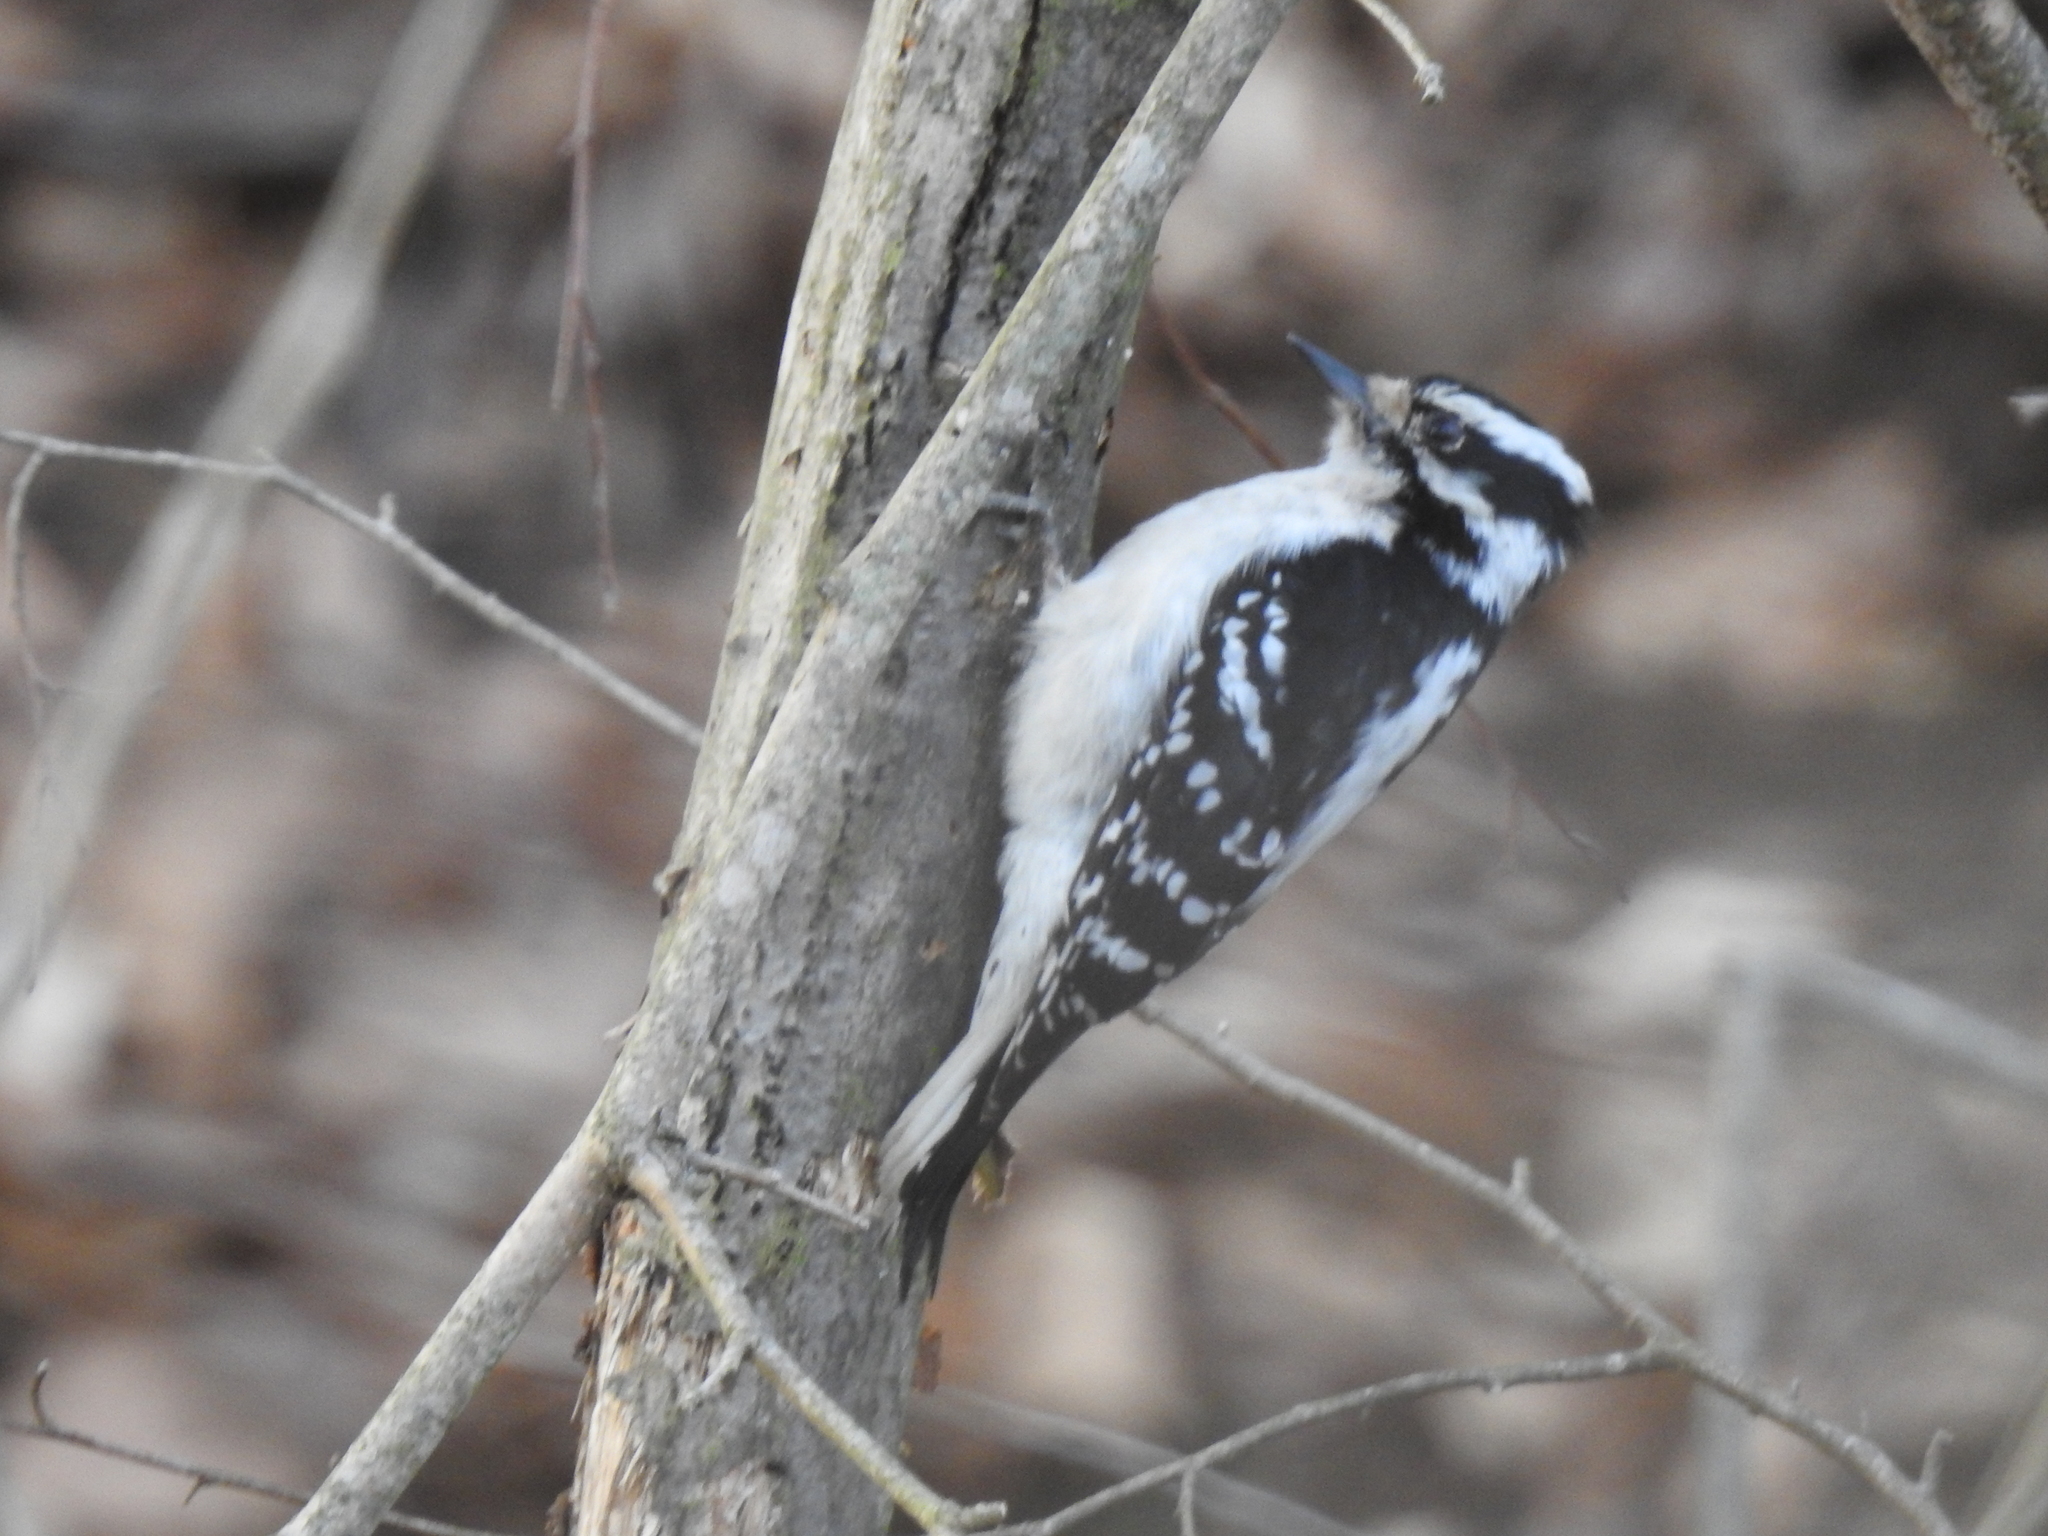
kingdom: Animalia
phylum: Chordata
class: Aves
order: Piciformes
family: Picidae
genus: Dryobates
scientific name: Dryobates pubescens
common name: Downy woodpecker
